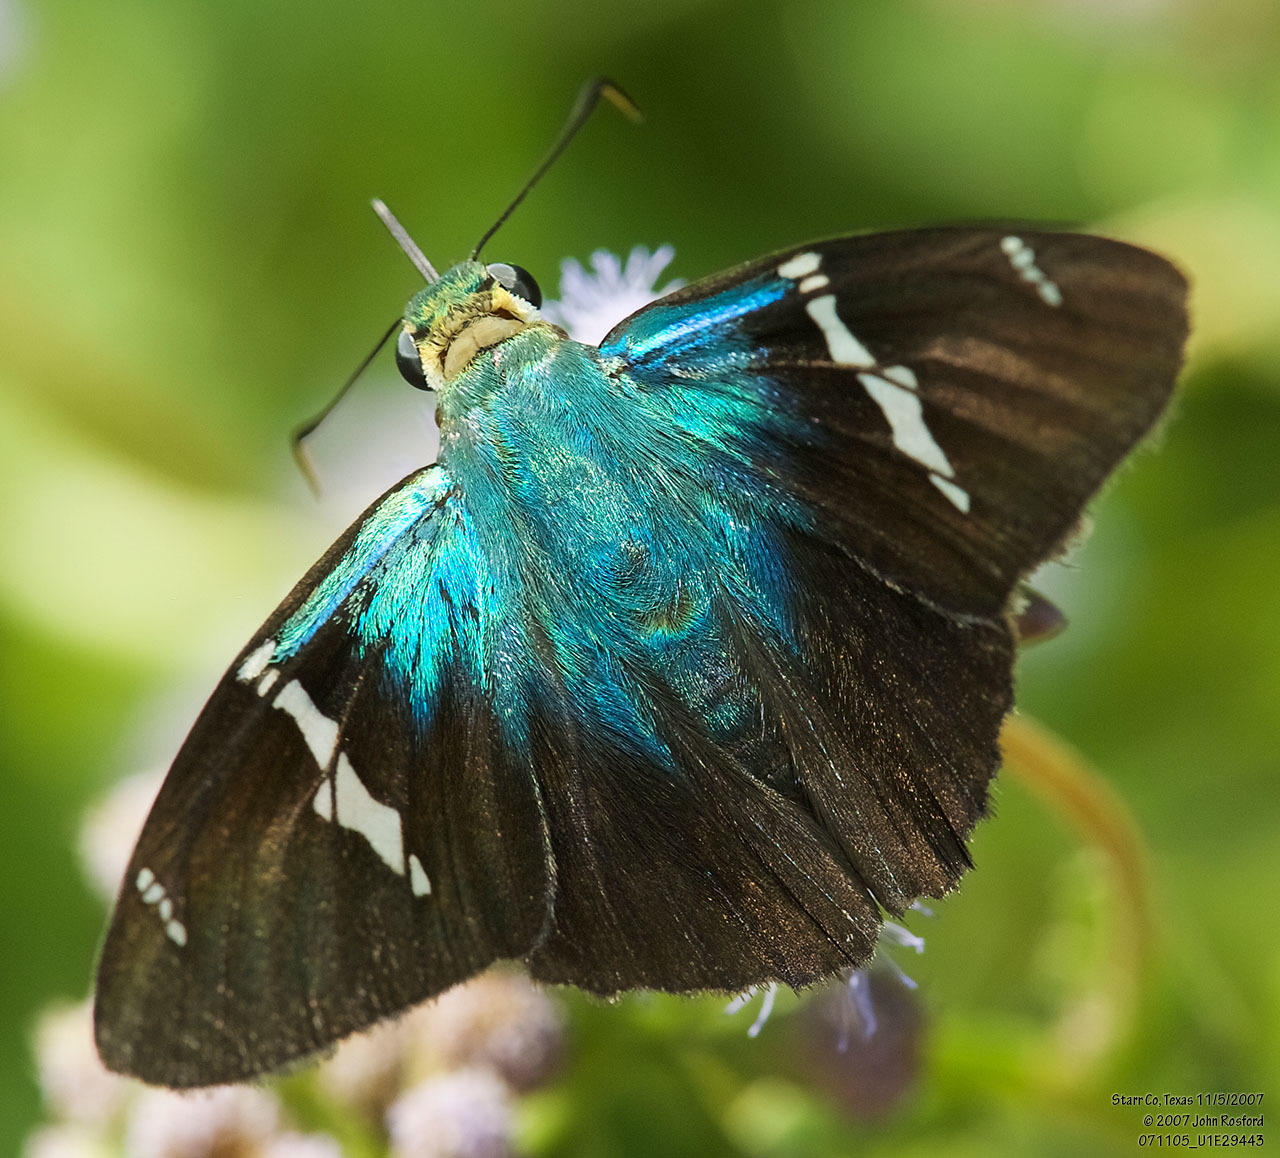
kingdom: Animalia
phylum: Arthropoda
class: Insecta
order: Lepidoptera
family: Hesperiidae
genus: Astraptes
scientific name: Astraptes fulgerator
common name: Two-barred flasher
